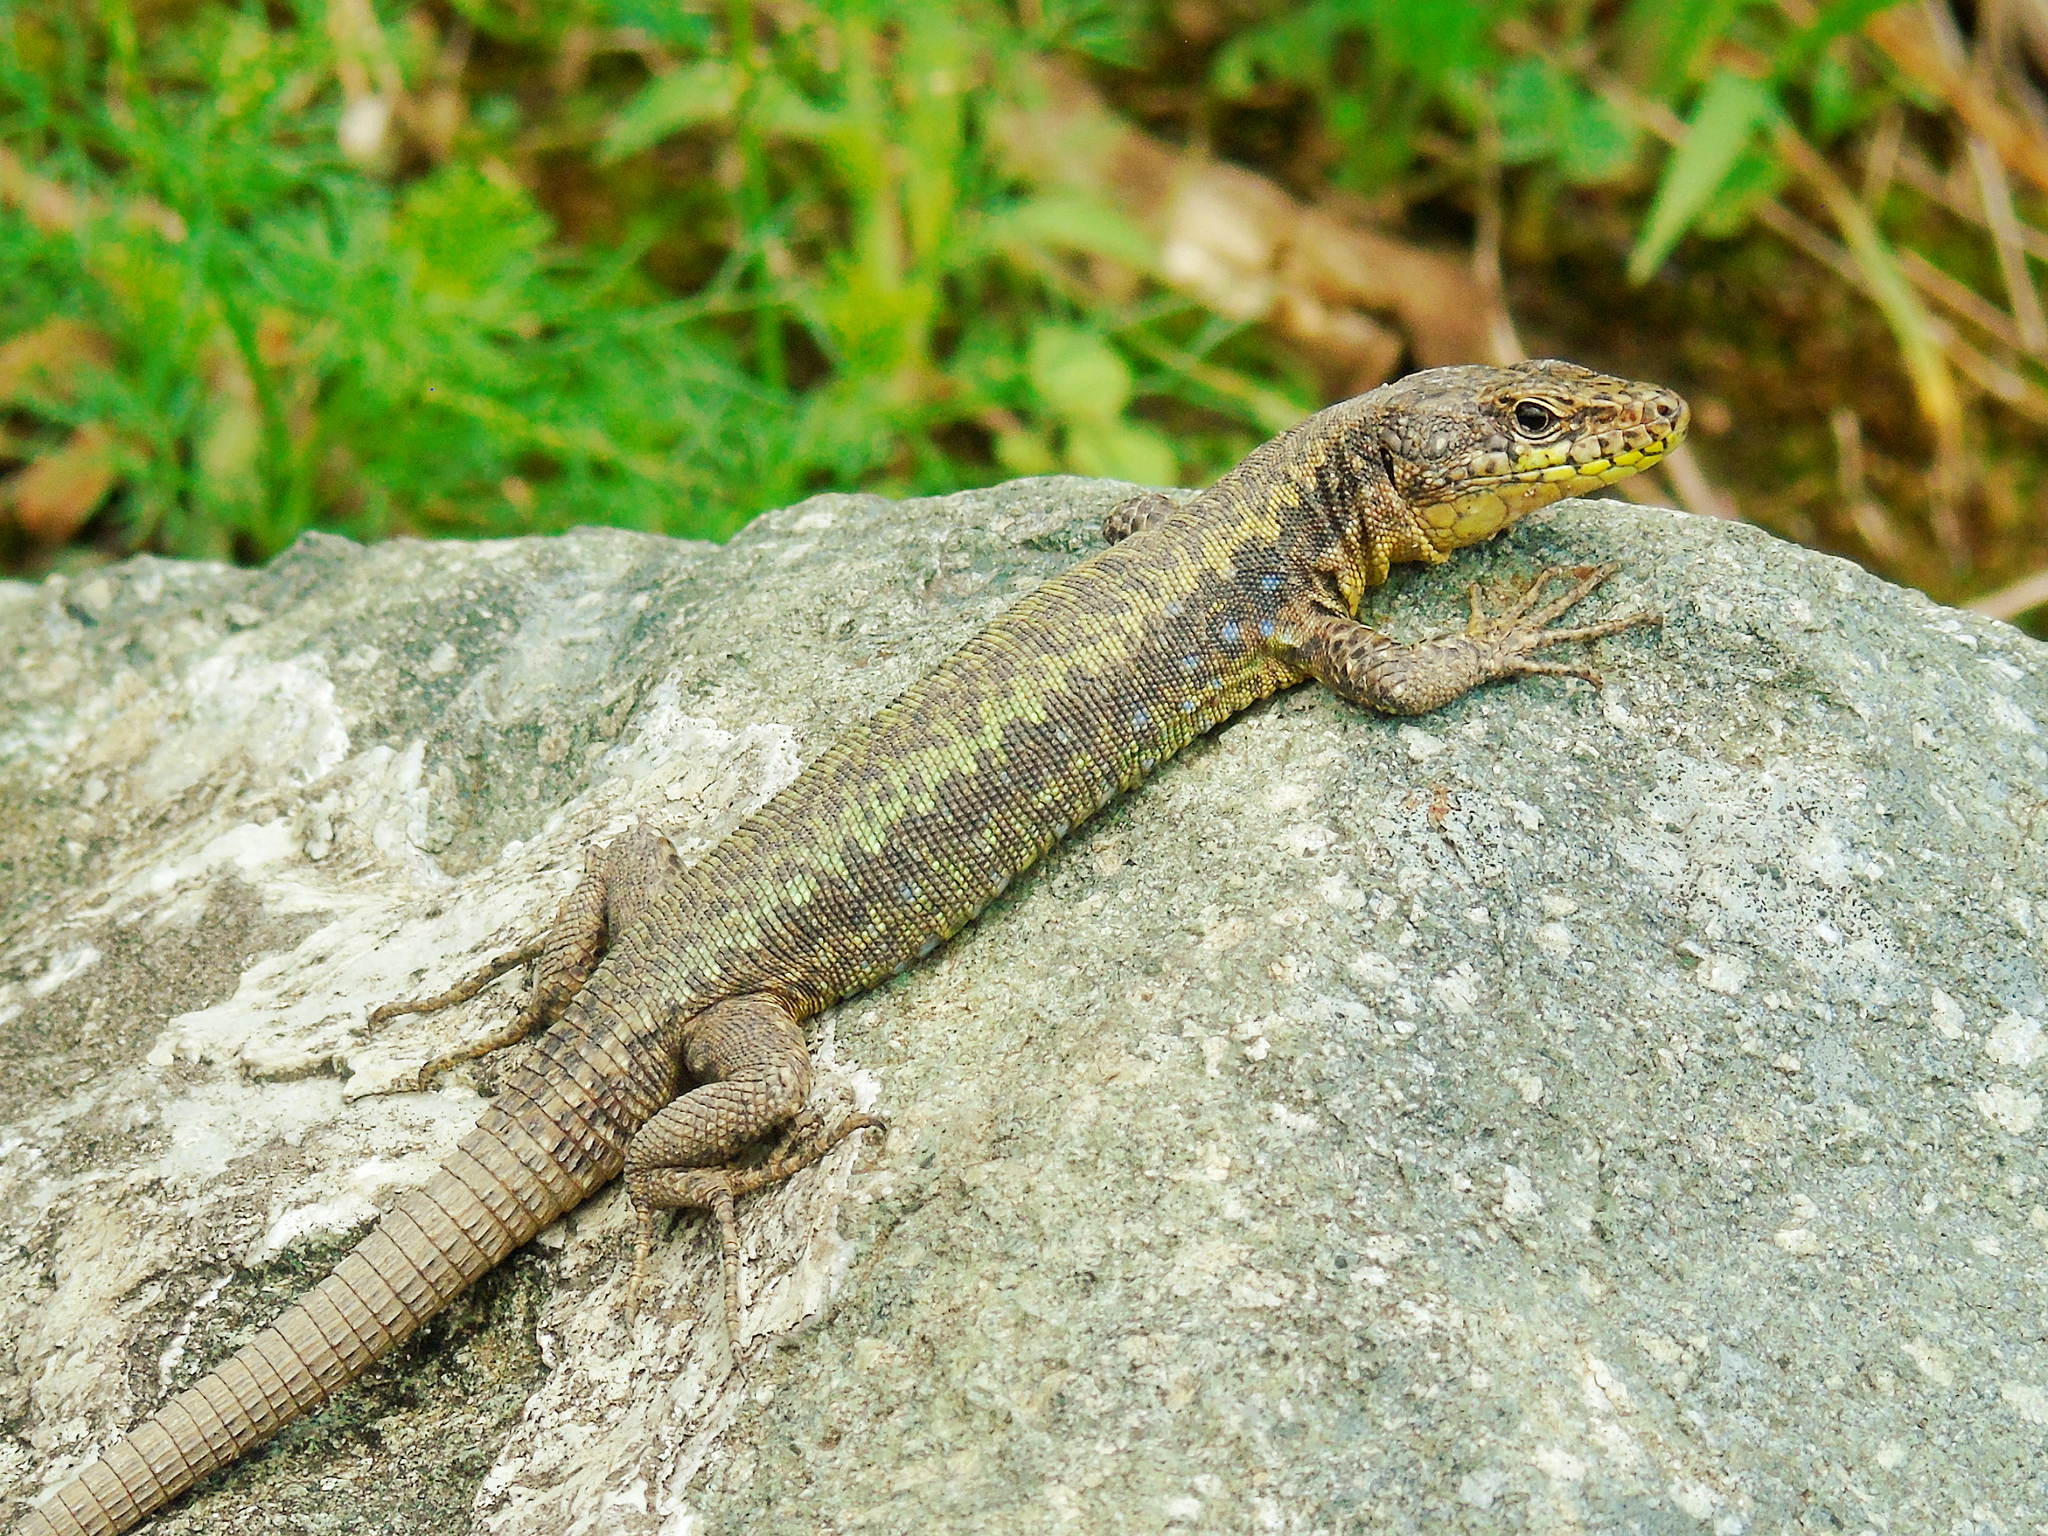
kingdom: Animalia
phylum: Chordata
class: Squamata
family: Lacertidae
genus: Darevskia
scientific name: Darevskia rudis
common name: Spiny-tailed lizard
